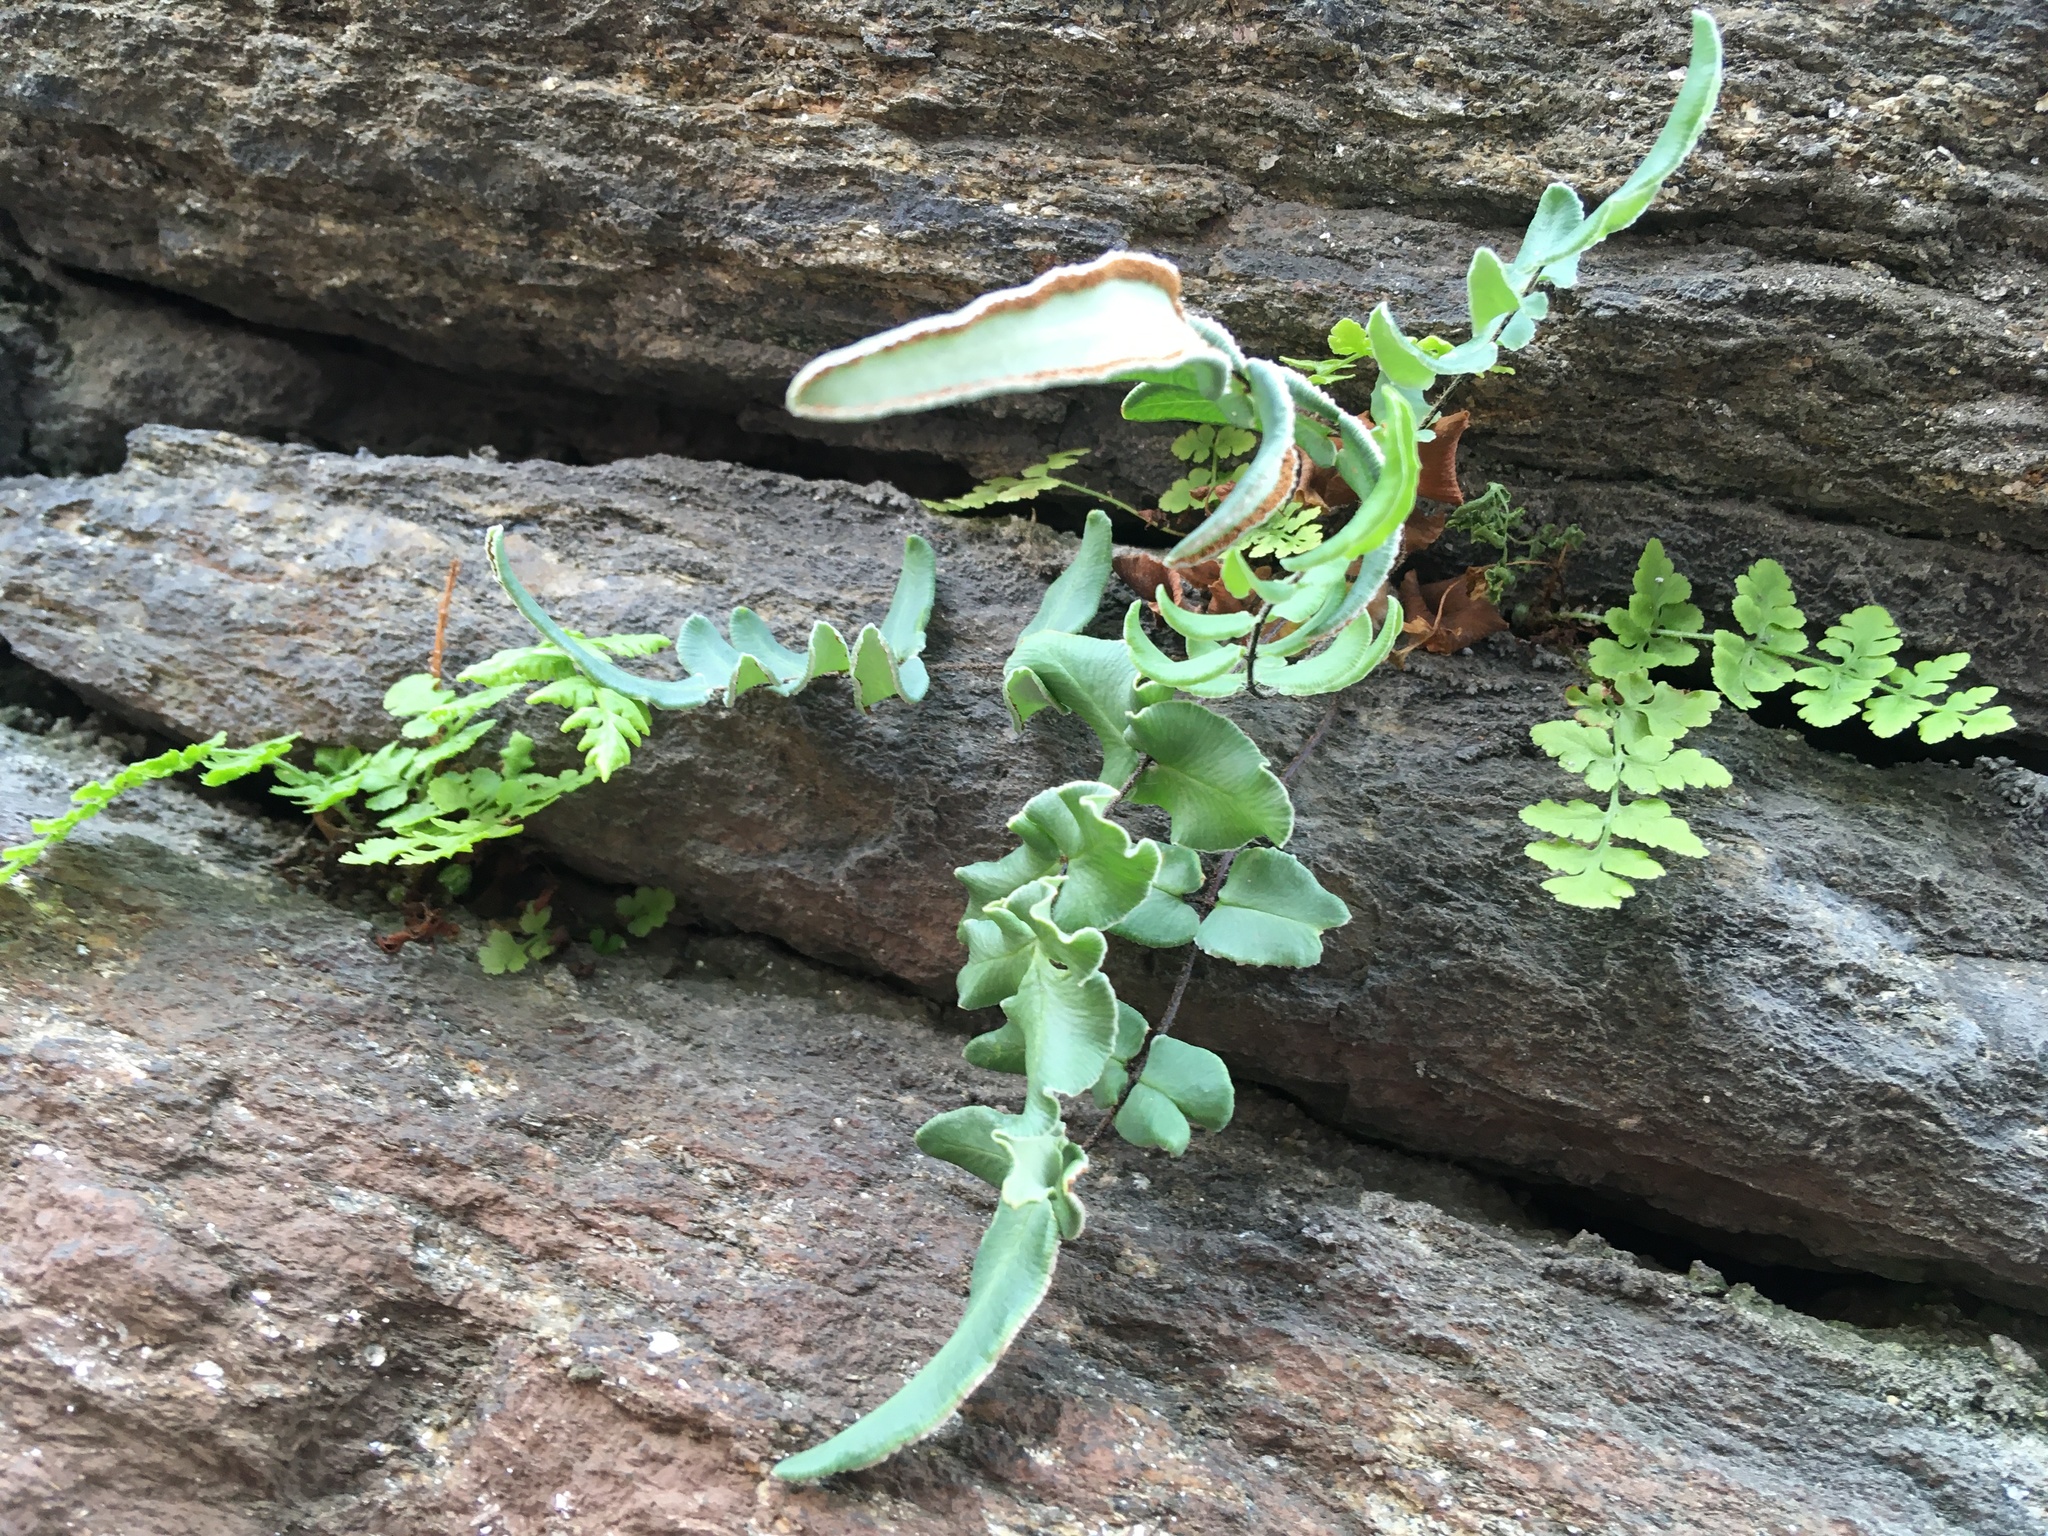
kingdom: Plantae
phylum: Tracheophyta
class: Polypodiopsida
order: Polypodiales
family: Pteridaceae
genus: Pellaea
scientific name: Pellaea atropurpurea
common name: Hairy cliffbrake
